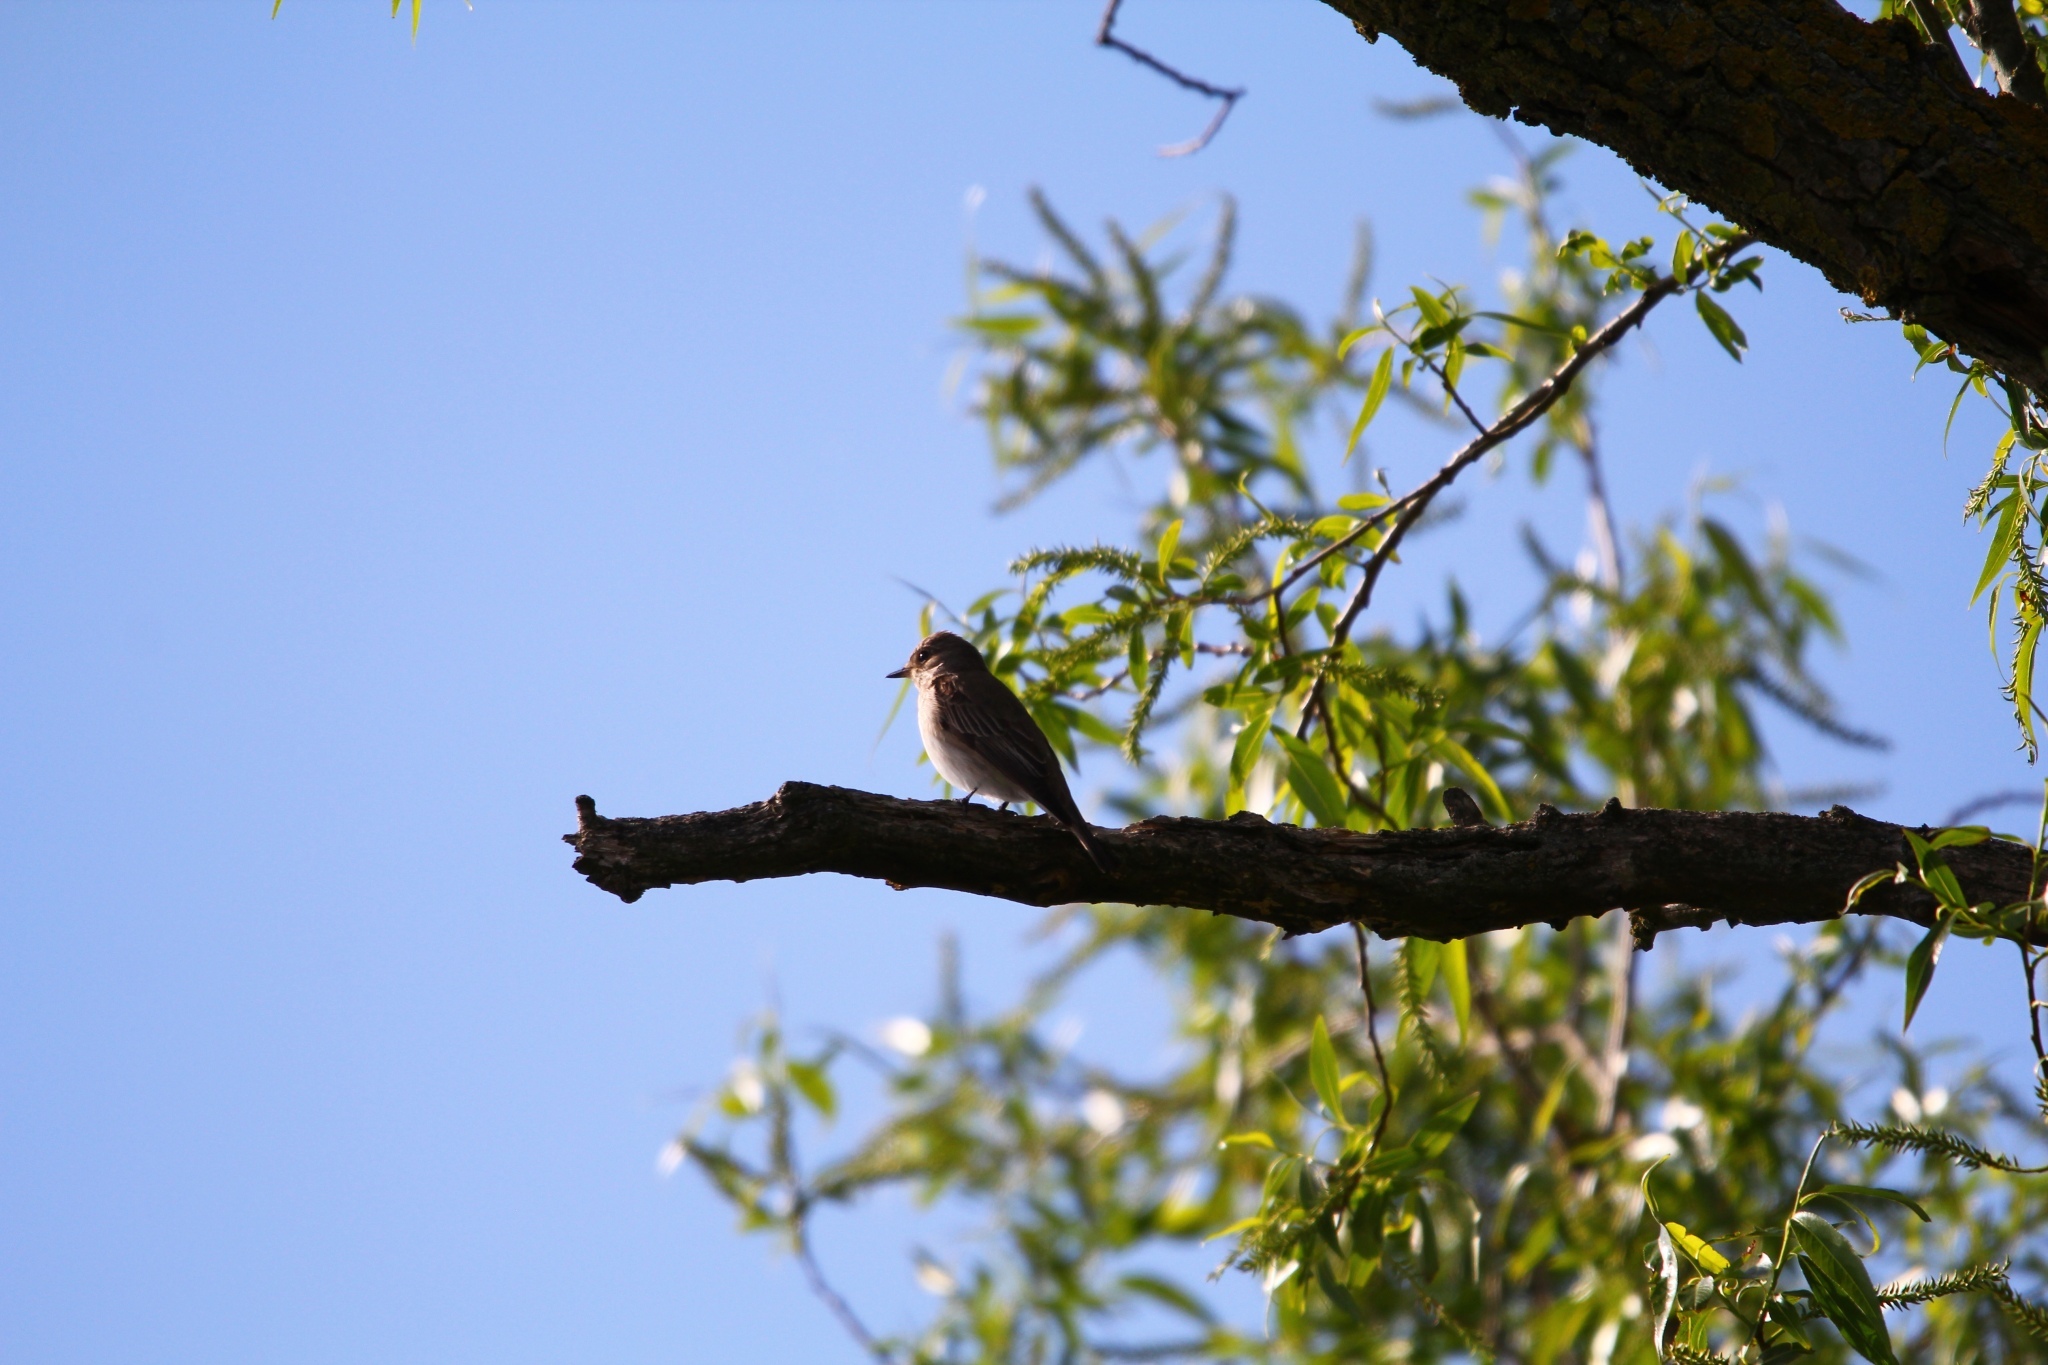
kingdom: Animalia
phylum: Chordata
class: Aves
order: Passeriformes
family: Muscicapidae
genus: Muscicapa
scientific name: Muscicapa striata
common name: Spotted flycatcher
